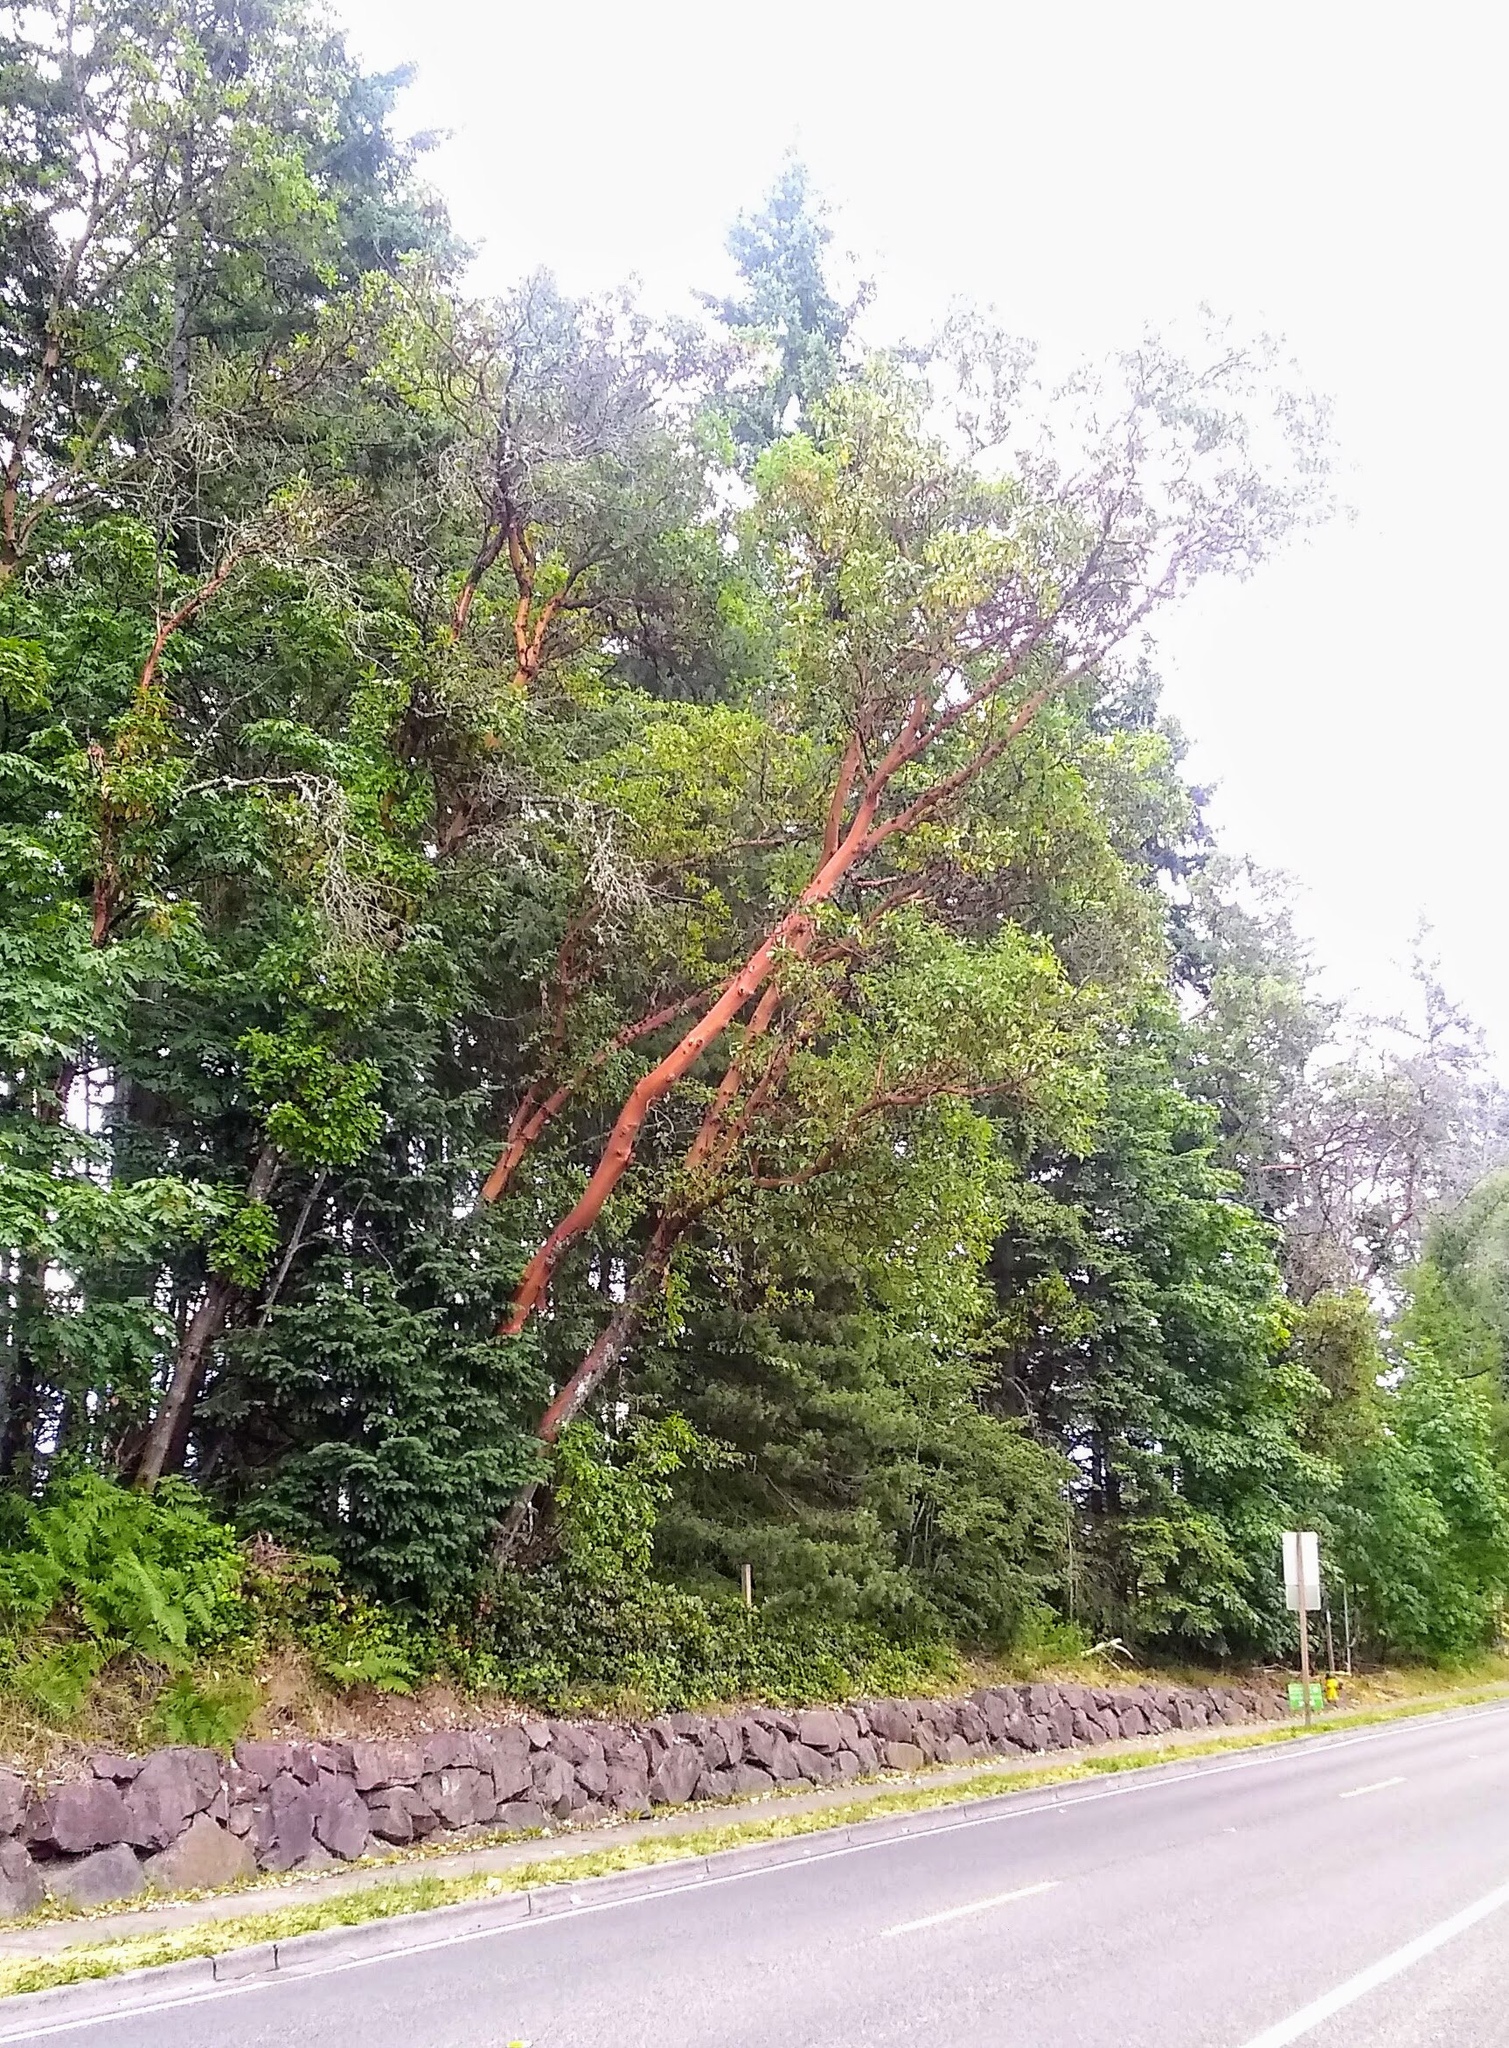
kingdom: Plantae
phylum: Tracheophyta
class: Magnoliopsida
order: Ericales
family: Ericaceae
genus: Arbutus
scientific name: Arbutus menziesii
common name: Pacific madrone
